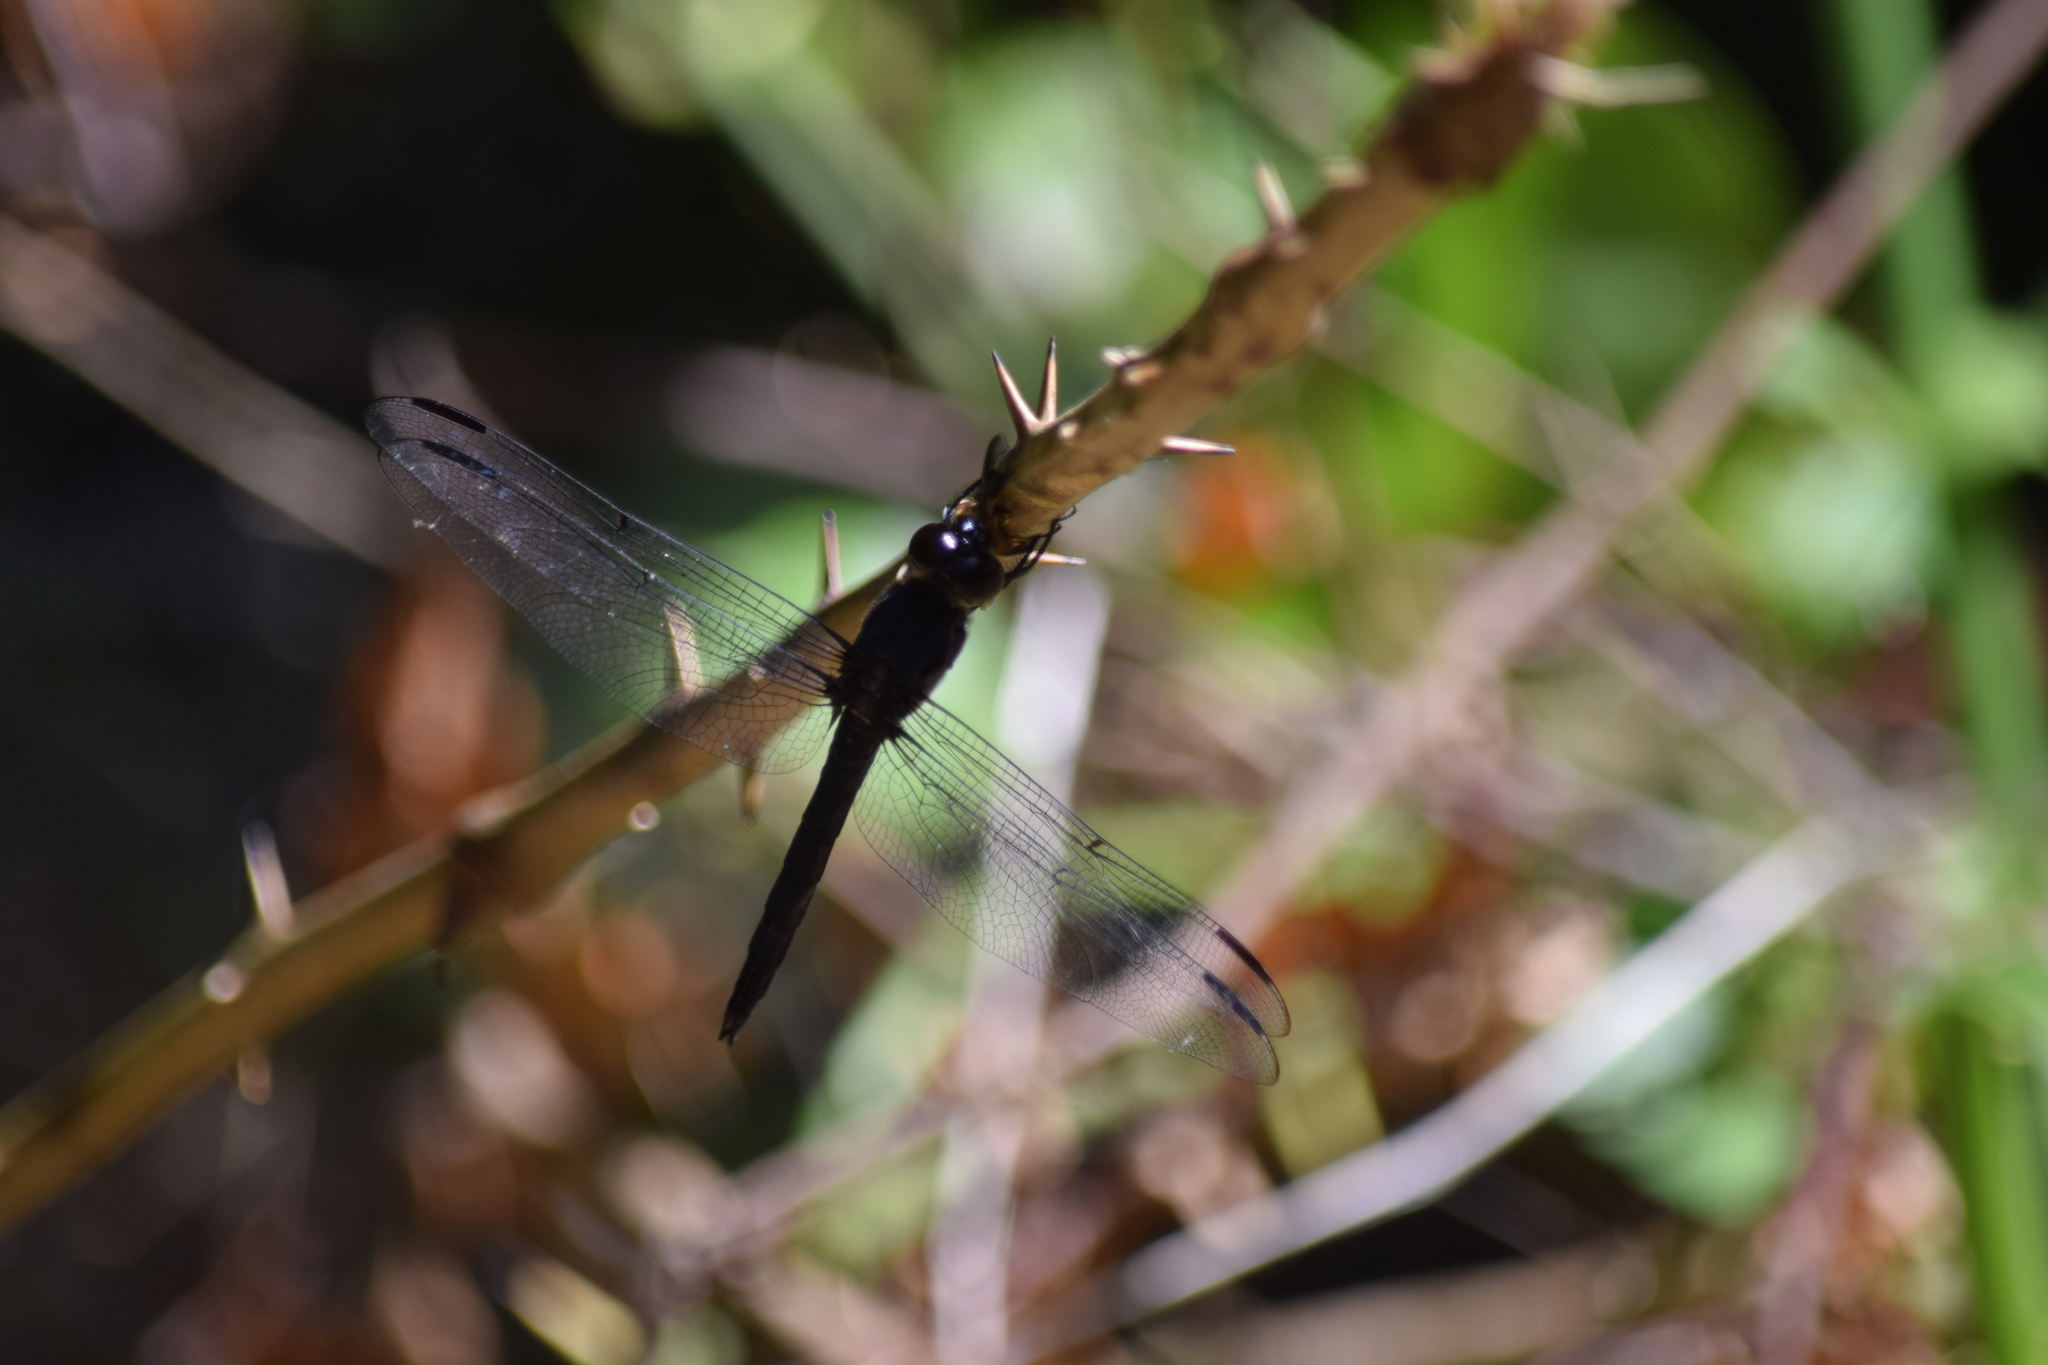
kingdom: Animalia
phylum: Arthropoda
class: Insecta
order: Odonata
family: Libellulidae
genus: Libellula
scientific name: Libellula incesta
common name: Slaty skimmer
